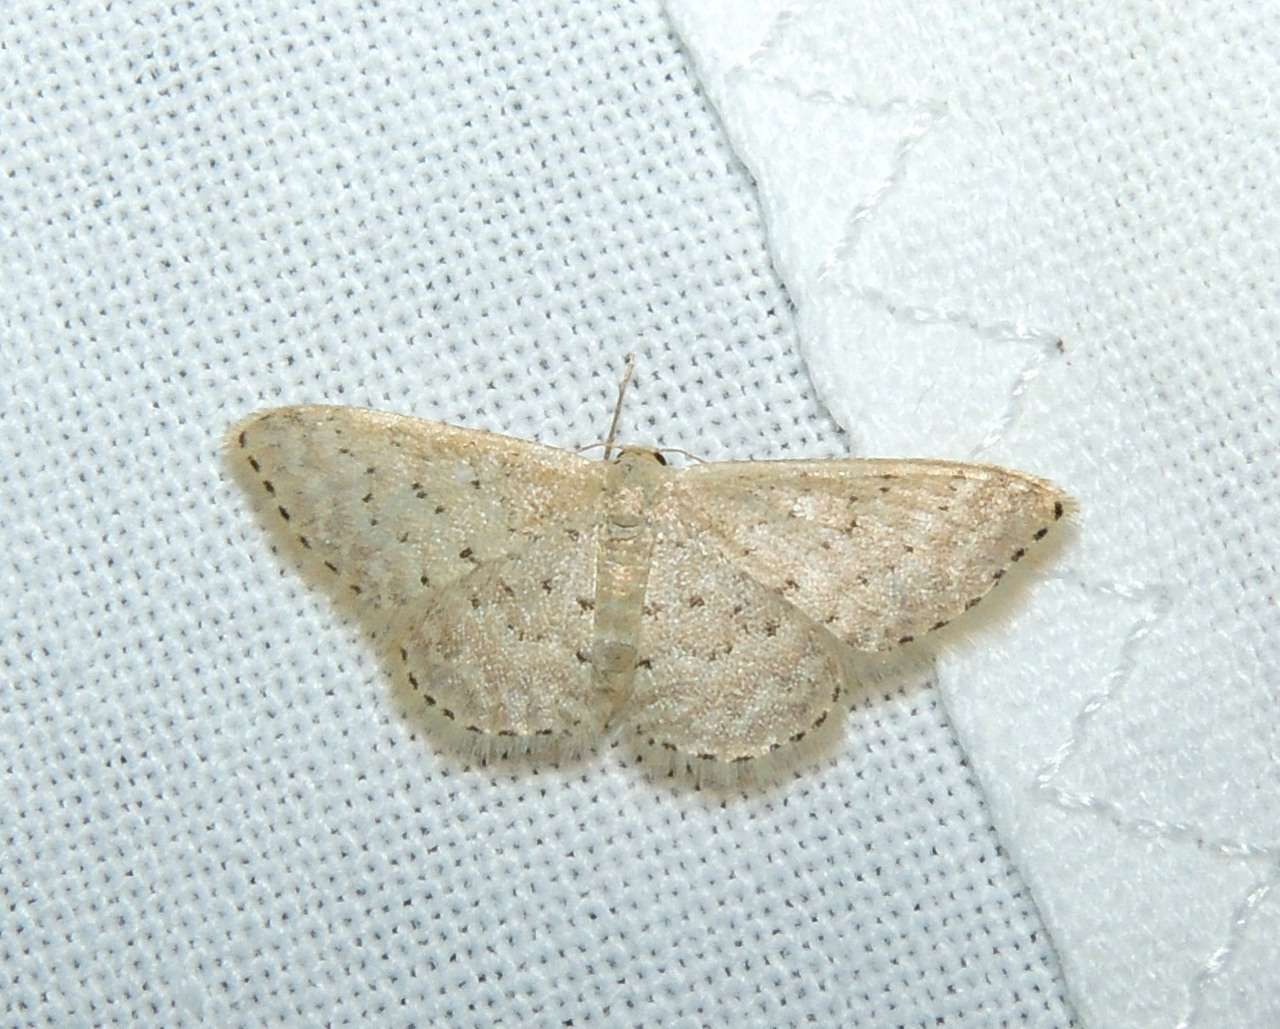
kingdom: Animalia
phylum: Arthropoda
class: Insecta
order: Lepidoptera
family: Geometridae
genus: Idaea
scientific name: Idaea philocosma
